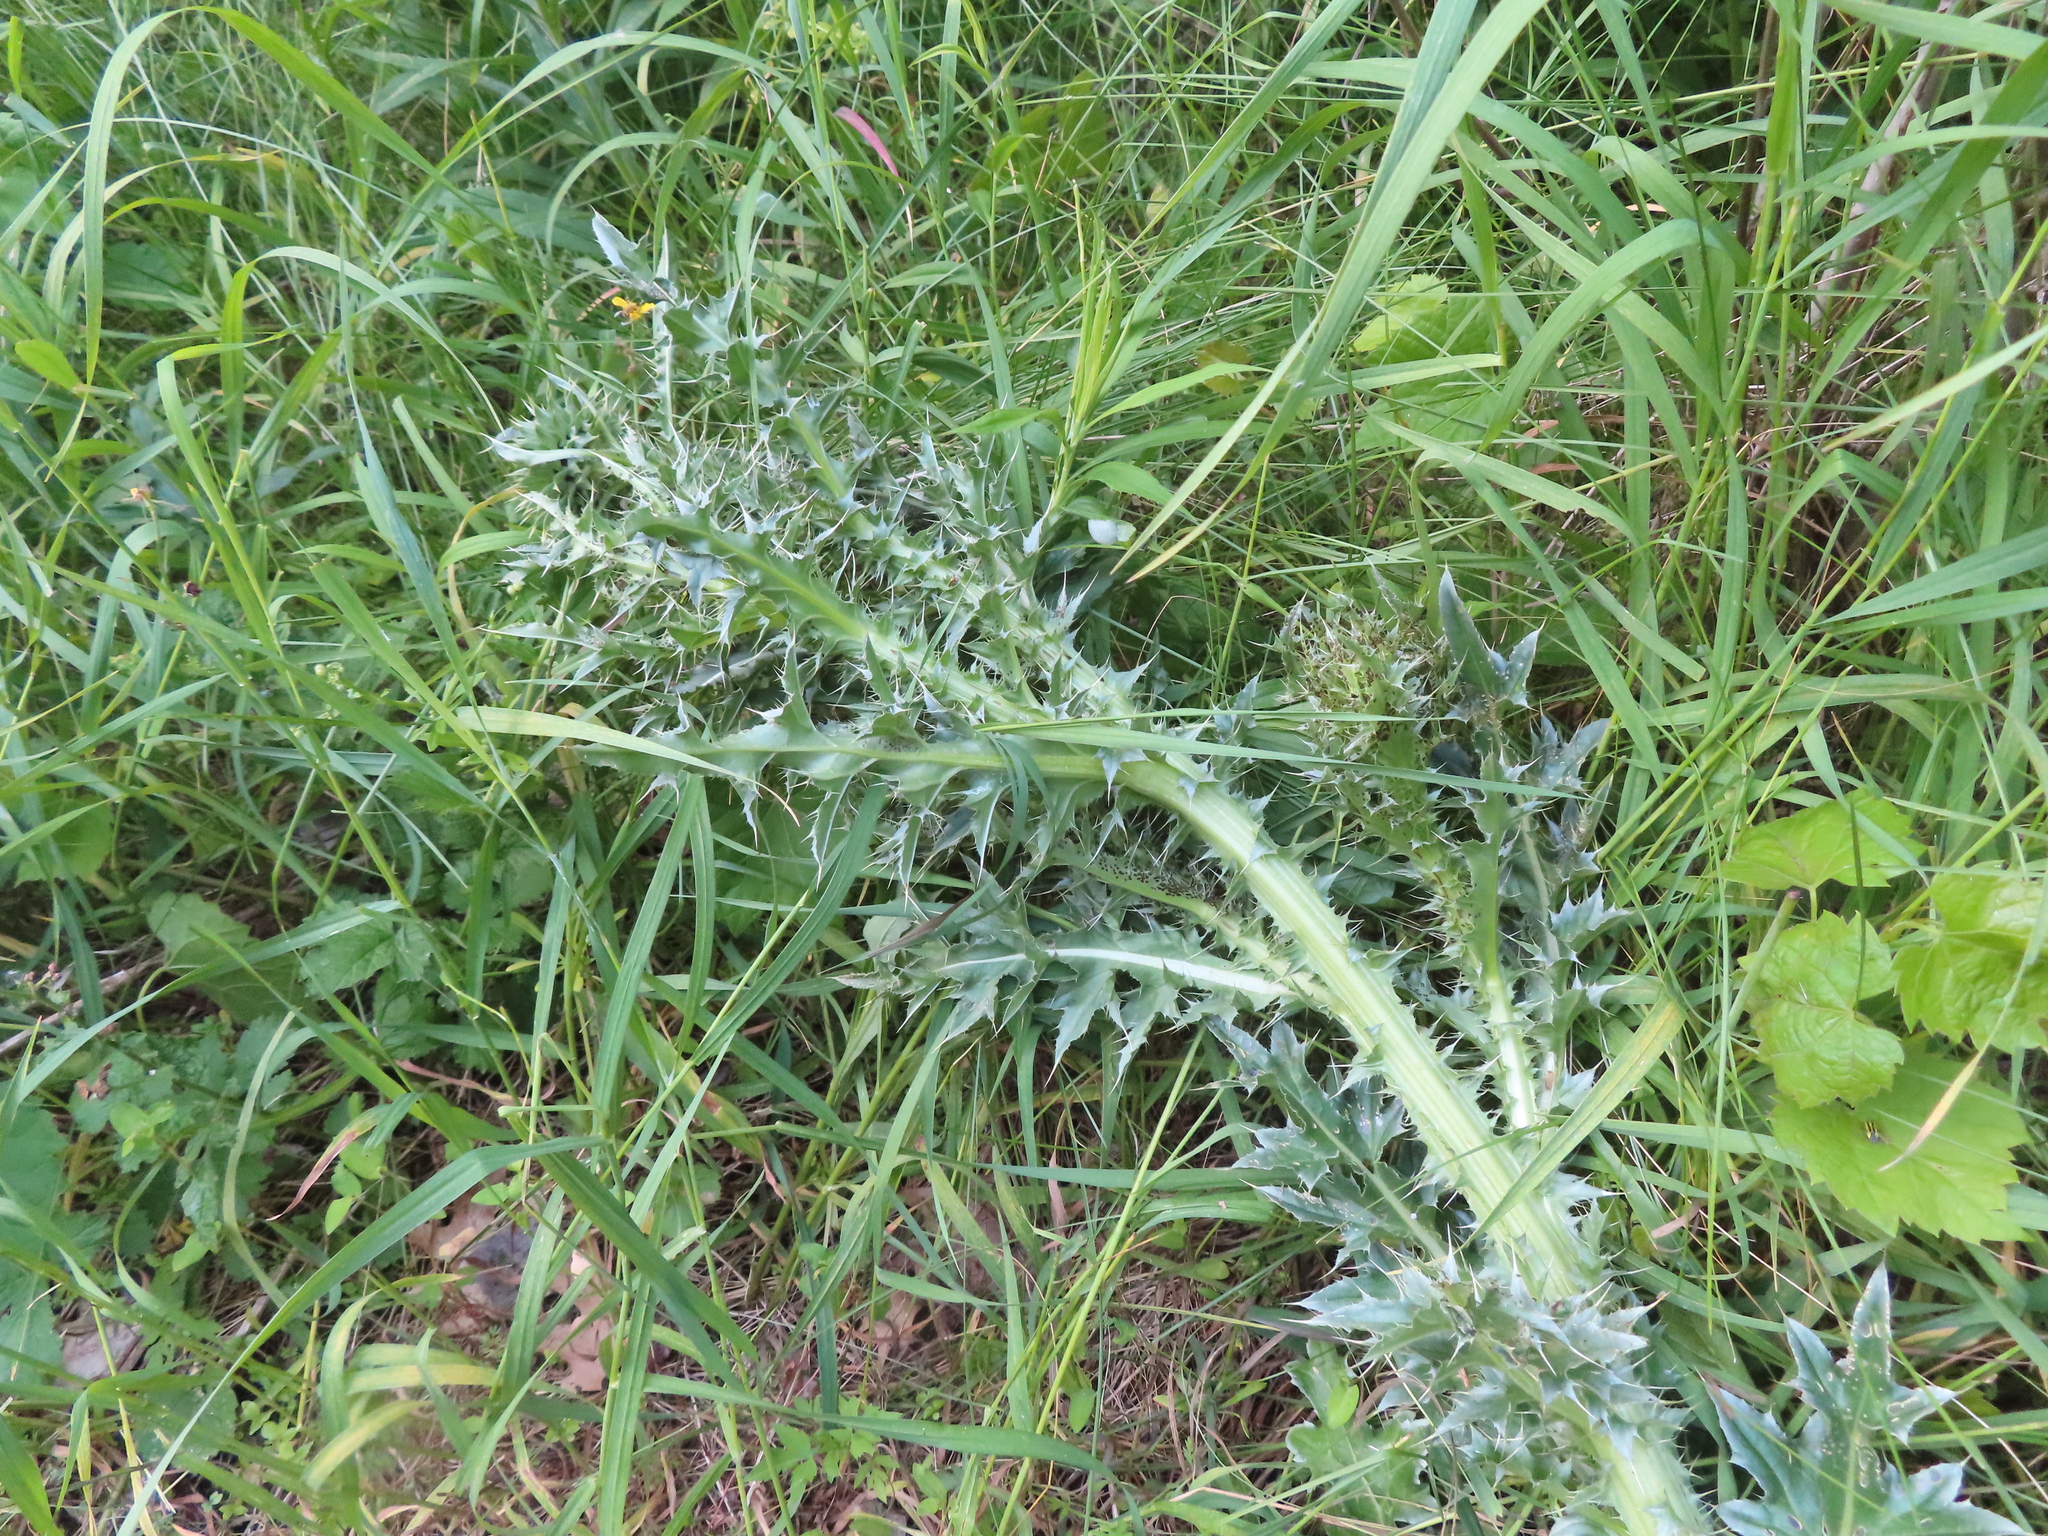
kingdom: Plantae
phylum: Tracheophyta
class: Magnoliopsida
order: Asterales
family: Asteraceae
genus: Carduus
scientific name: Carduus nutans
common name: Musk thistle
